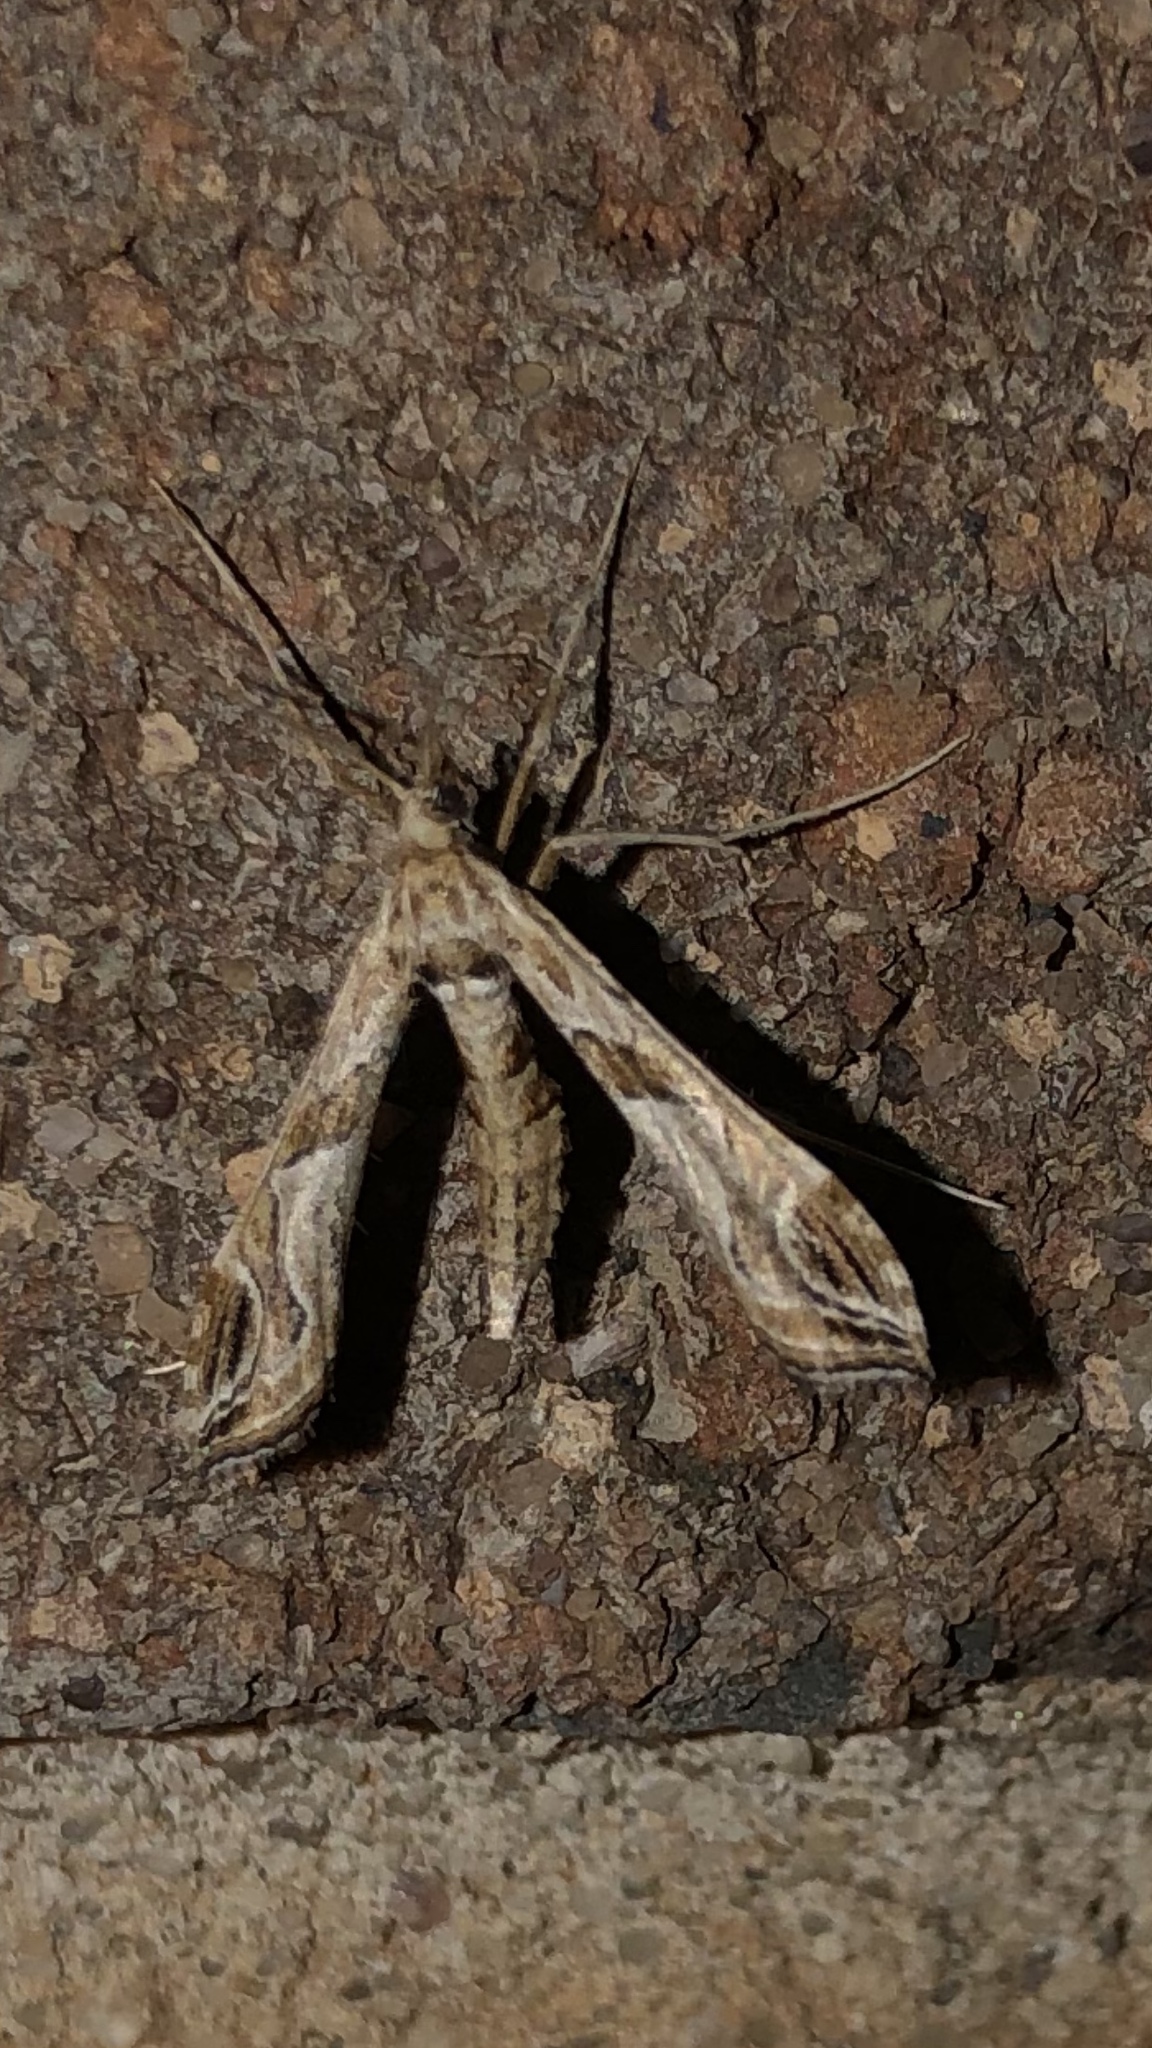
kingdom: Animalia
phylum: Arthropoda
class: Insecta
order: Lepidoptera
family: Crambidae
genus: Lineodes
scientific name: Lineodes interrupta
